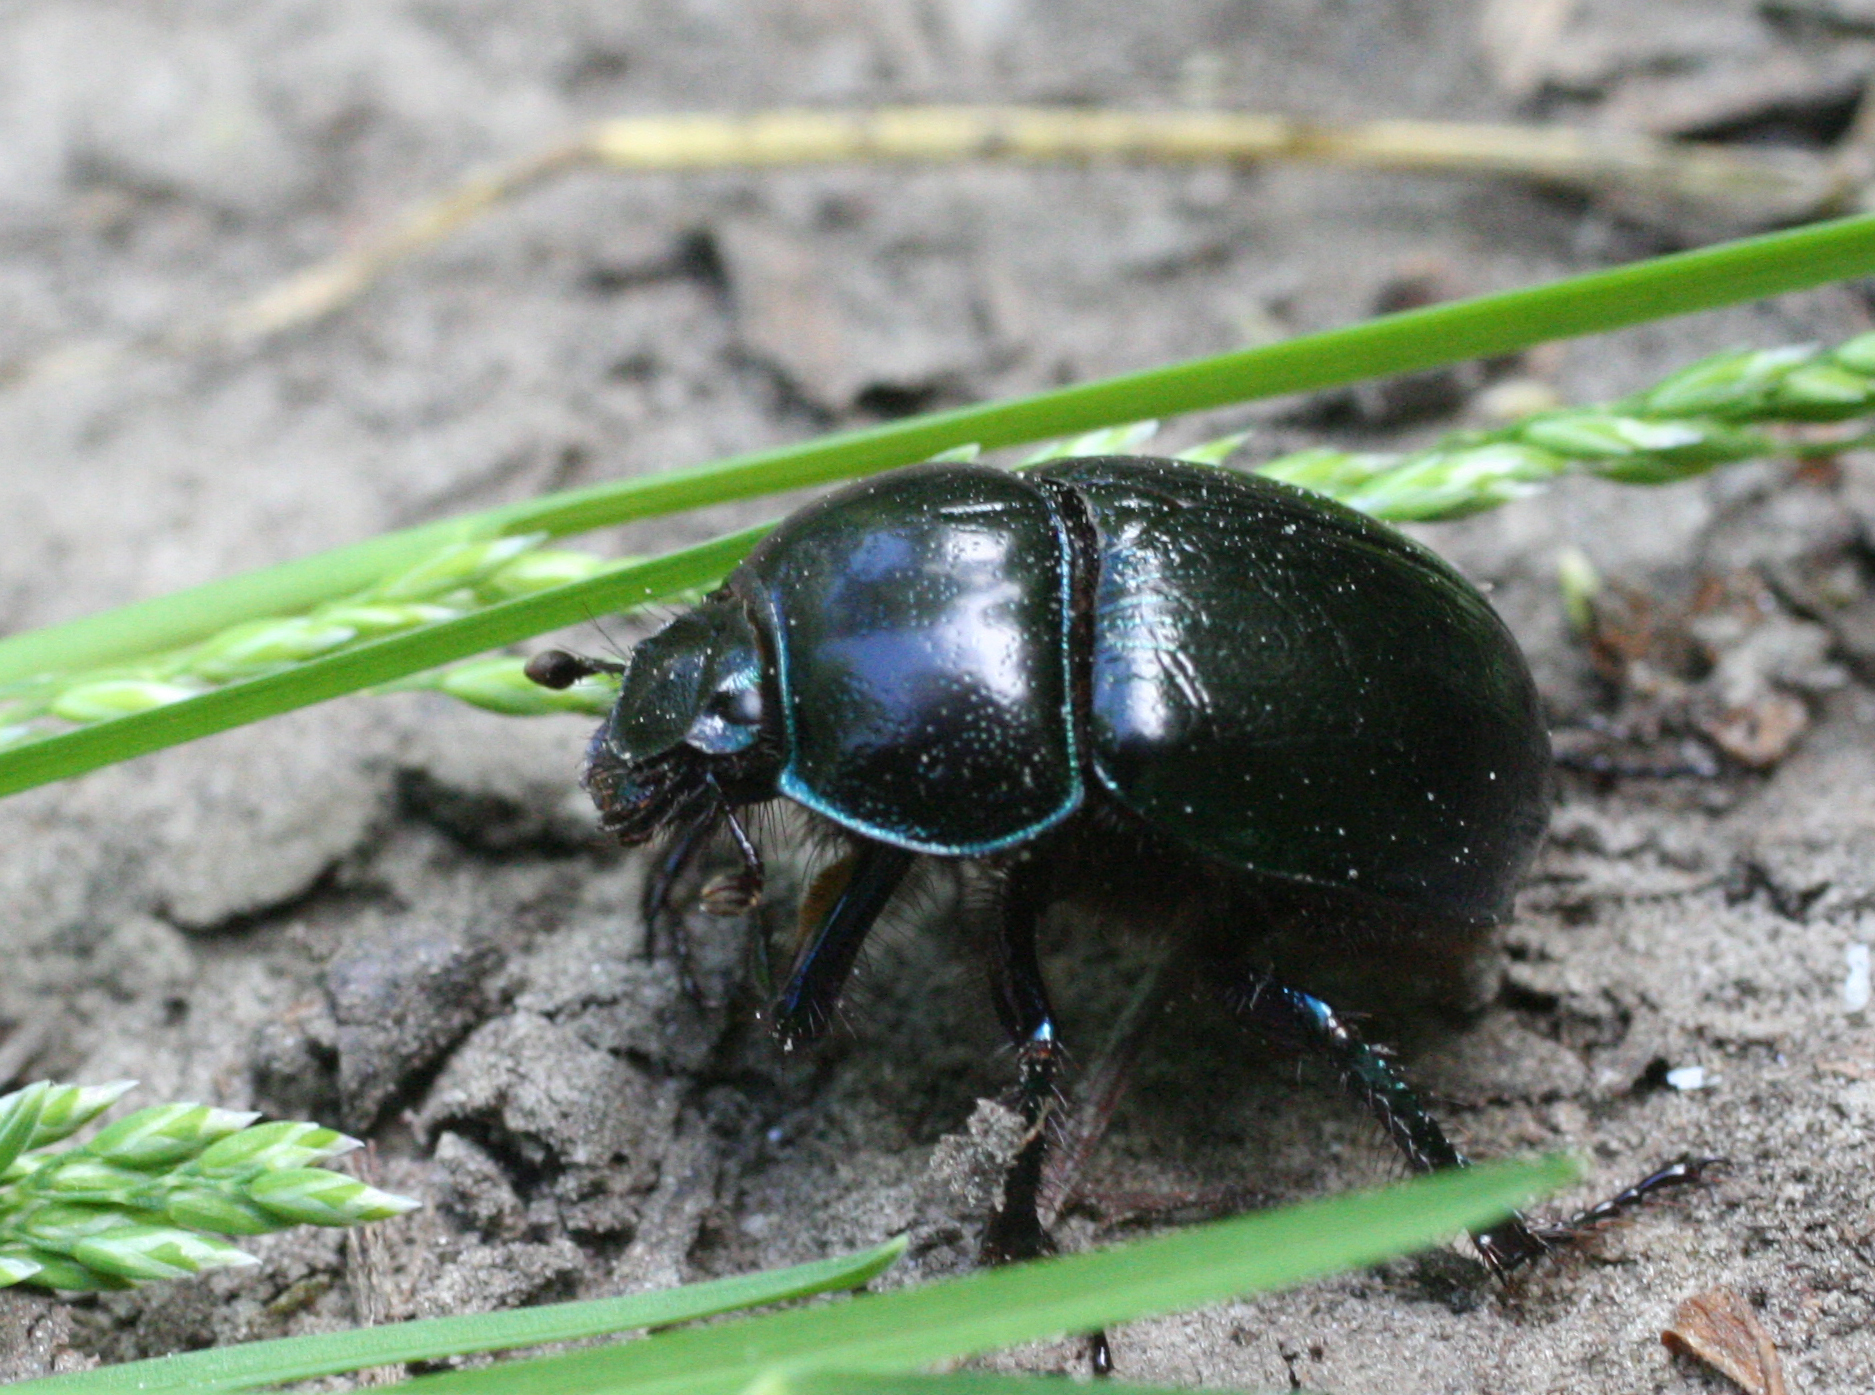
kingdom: Animalia
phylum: Arthropoda
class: Insecta
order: Coleoptera
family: Geotrupidae
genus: Anoplotrupes
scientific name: Anoplotrupes stercorosus
